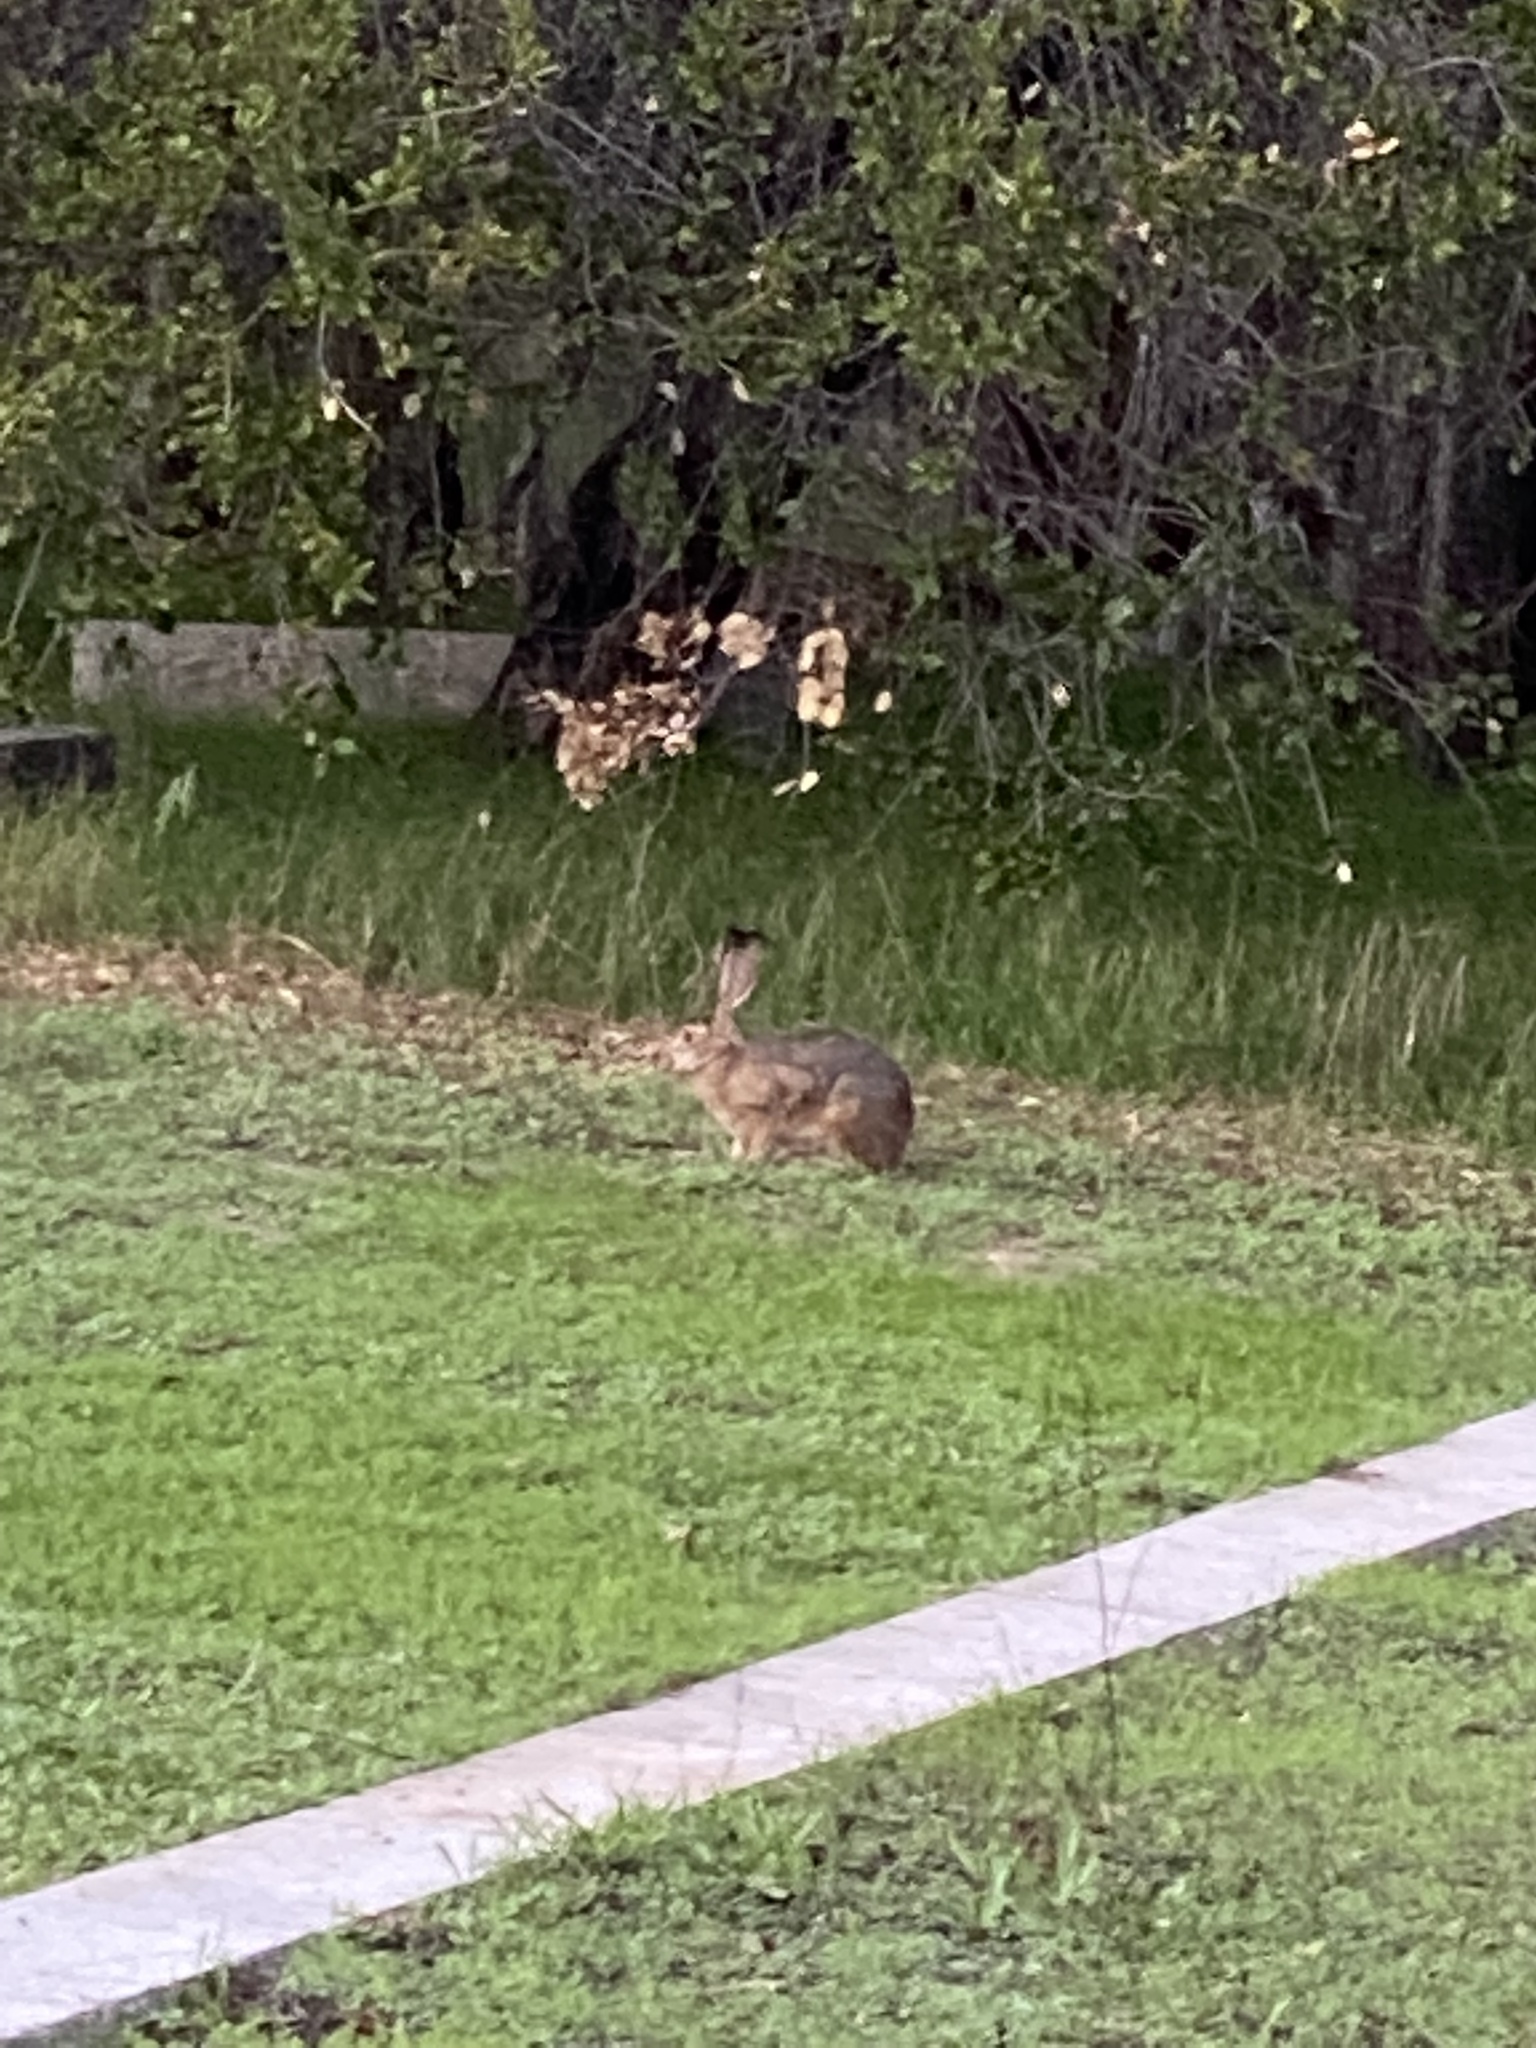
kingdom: Animalia
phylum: Chordata
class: Mammalia
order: Lagomorpha
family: Leporidae
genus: Lepus
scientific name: Lepus californicus
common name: Black-tailed jackrabbit
